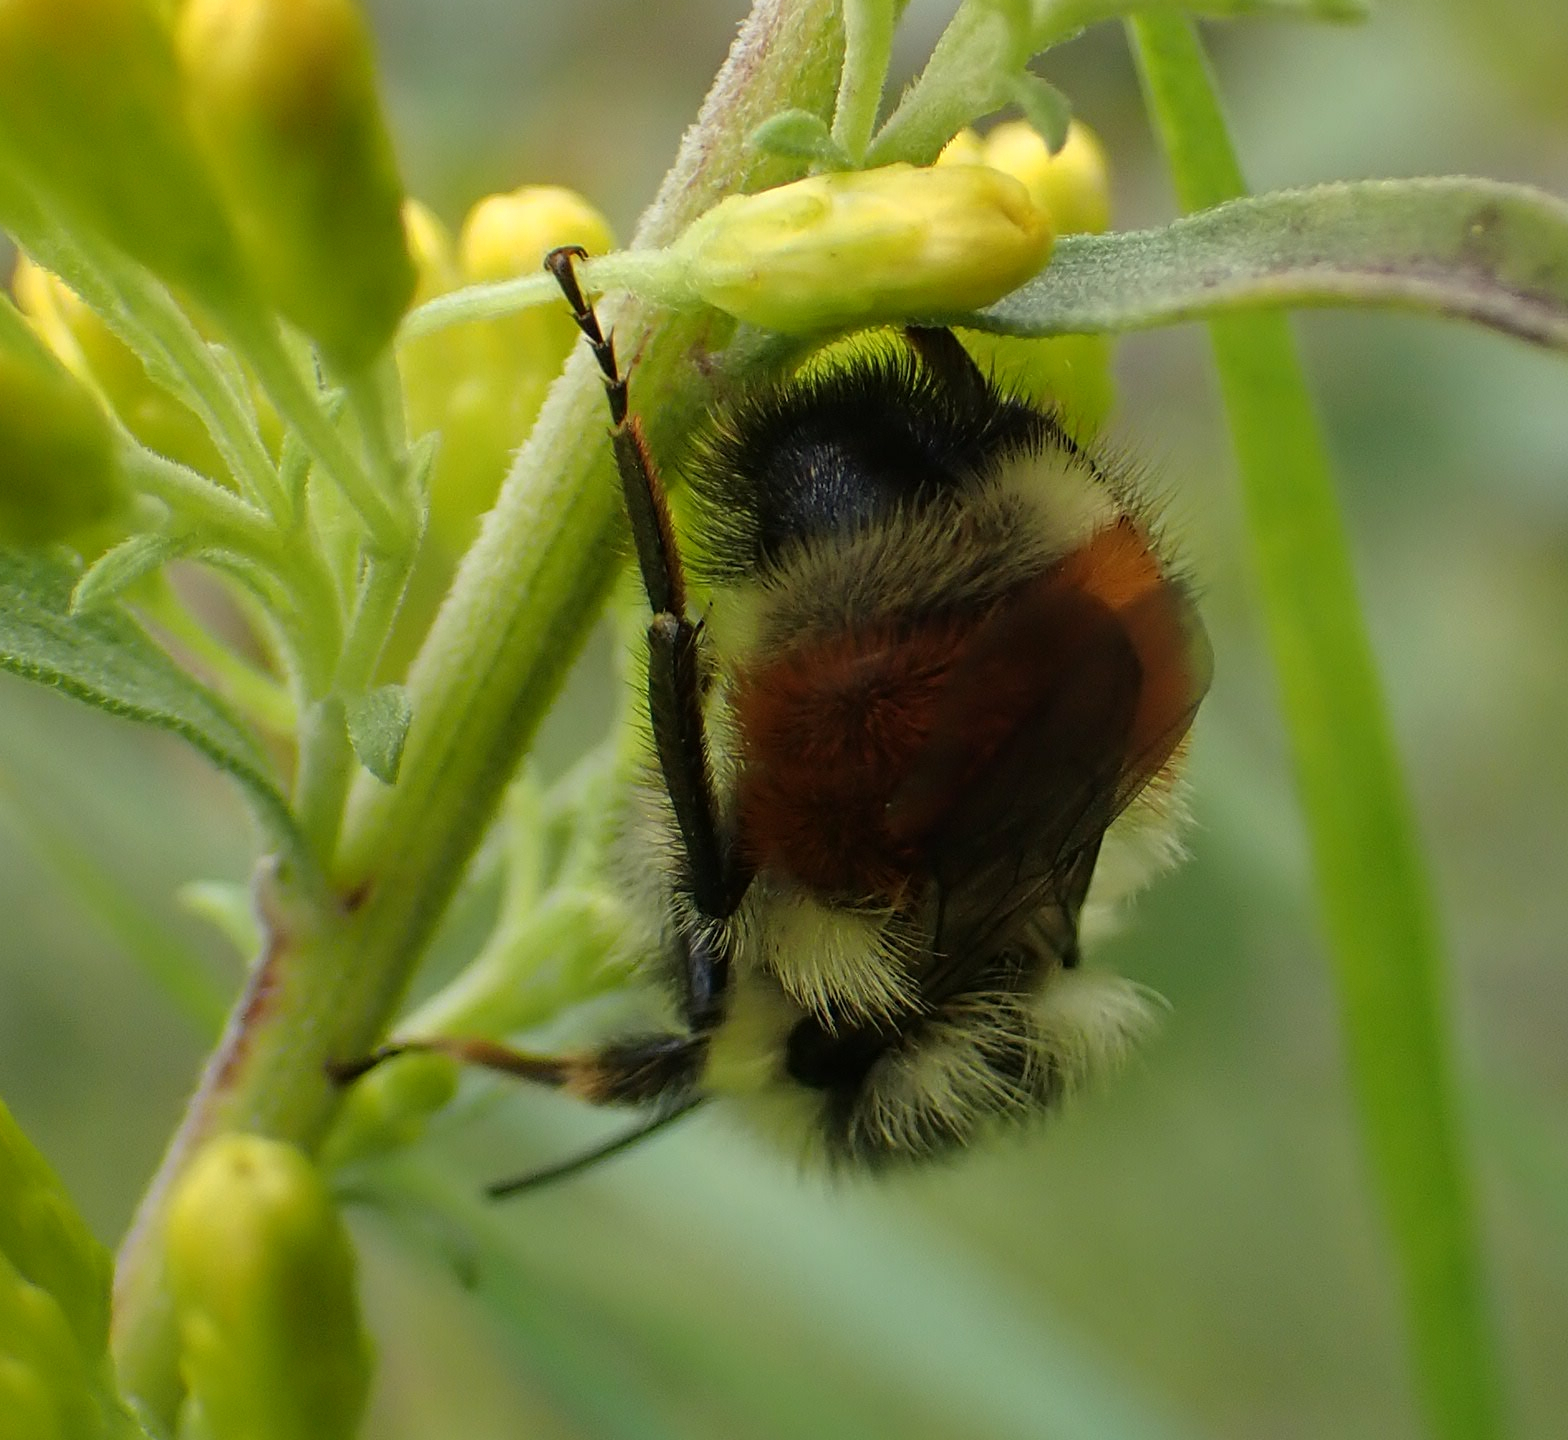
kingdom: Animalia
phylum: Arthropoda
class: Insecta
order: Hymenoptera
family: Apidae
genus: Bombus
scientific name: Bombus ternarius
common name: Tri-colored bumble bee
